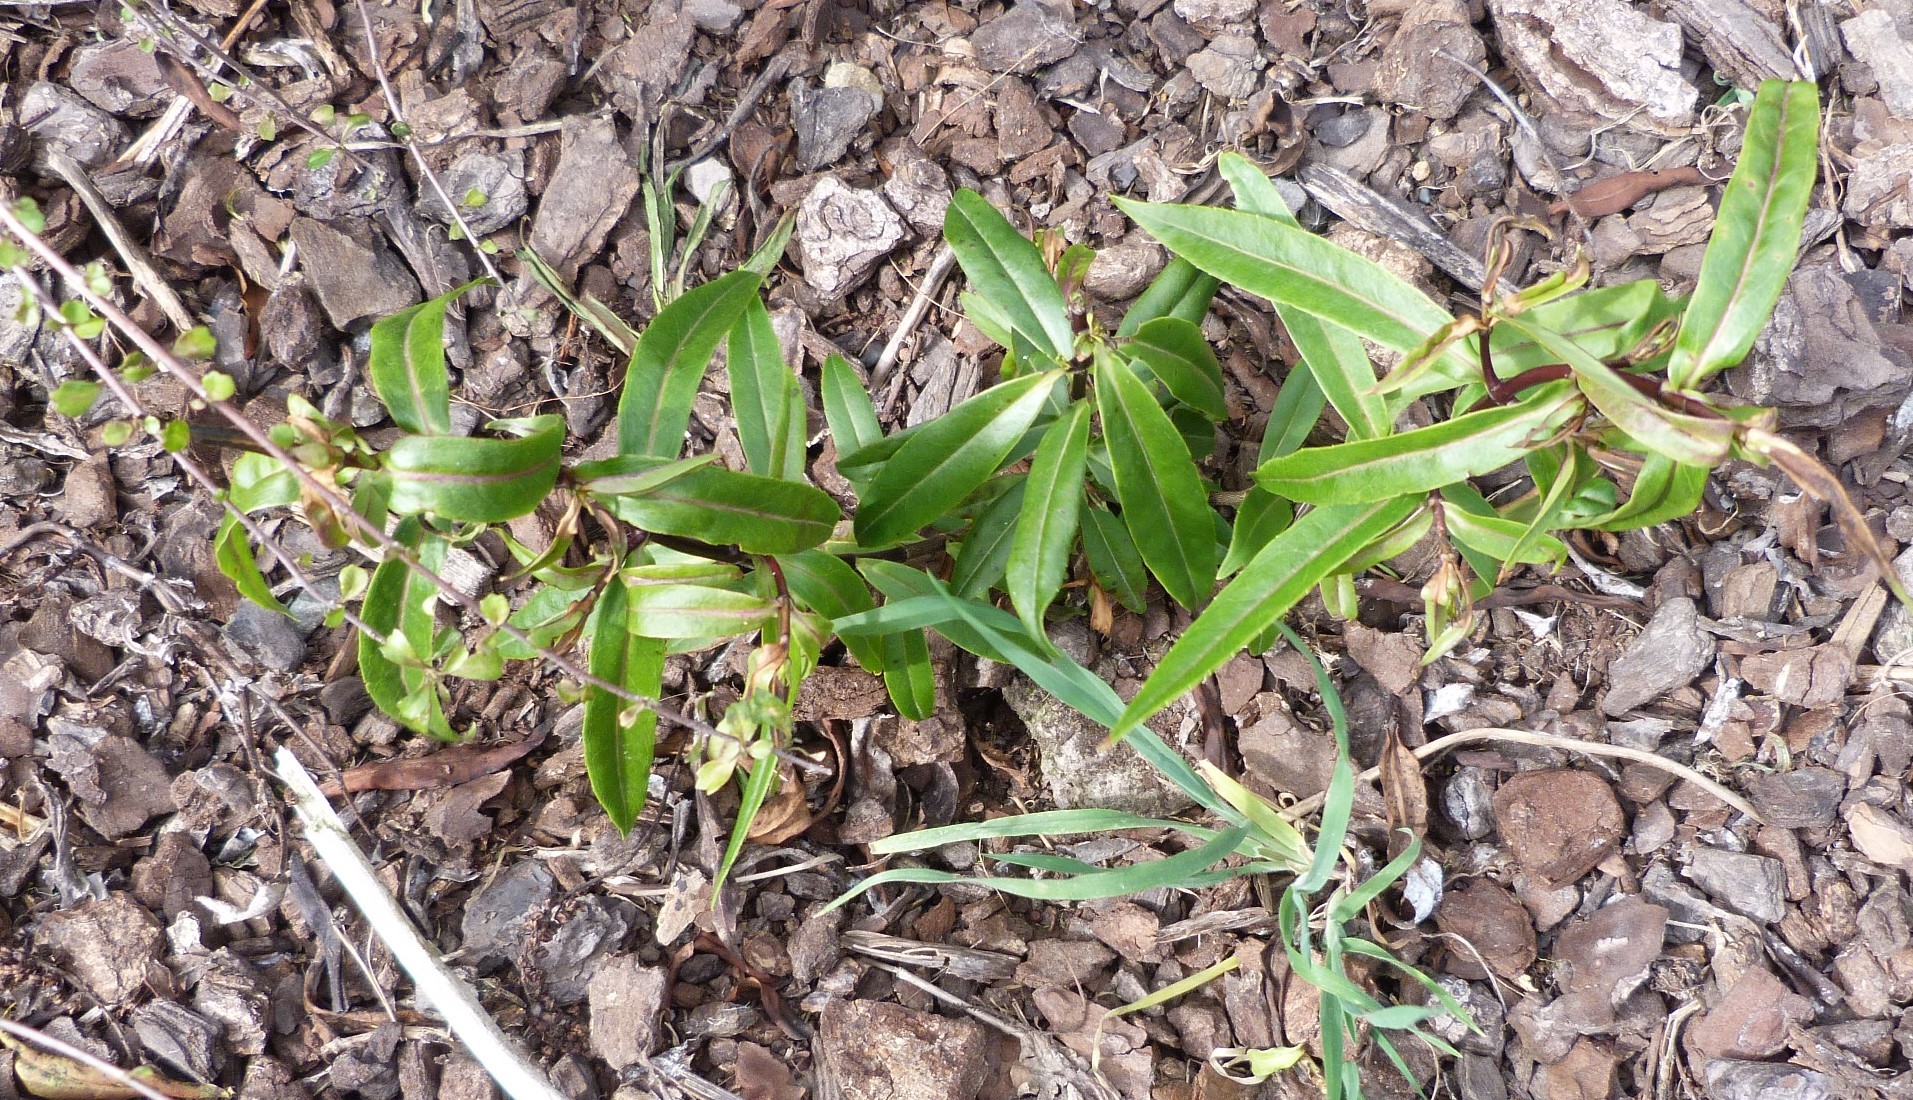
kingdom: Plantae
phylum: Tracheophyta
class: Magnoliopsida
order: Lamiales
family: Plantaginaceae
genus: Veronica
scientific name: Veronica salicifolia
